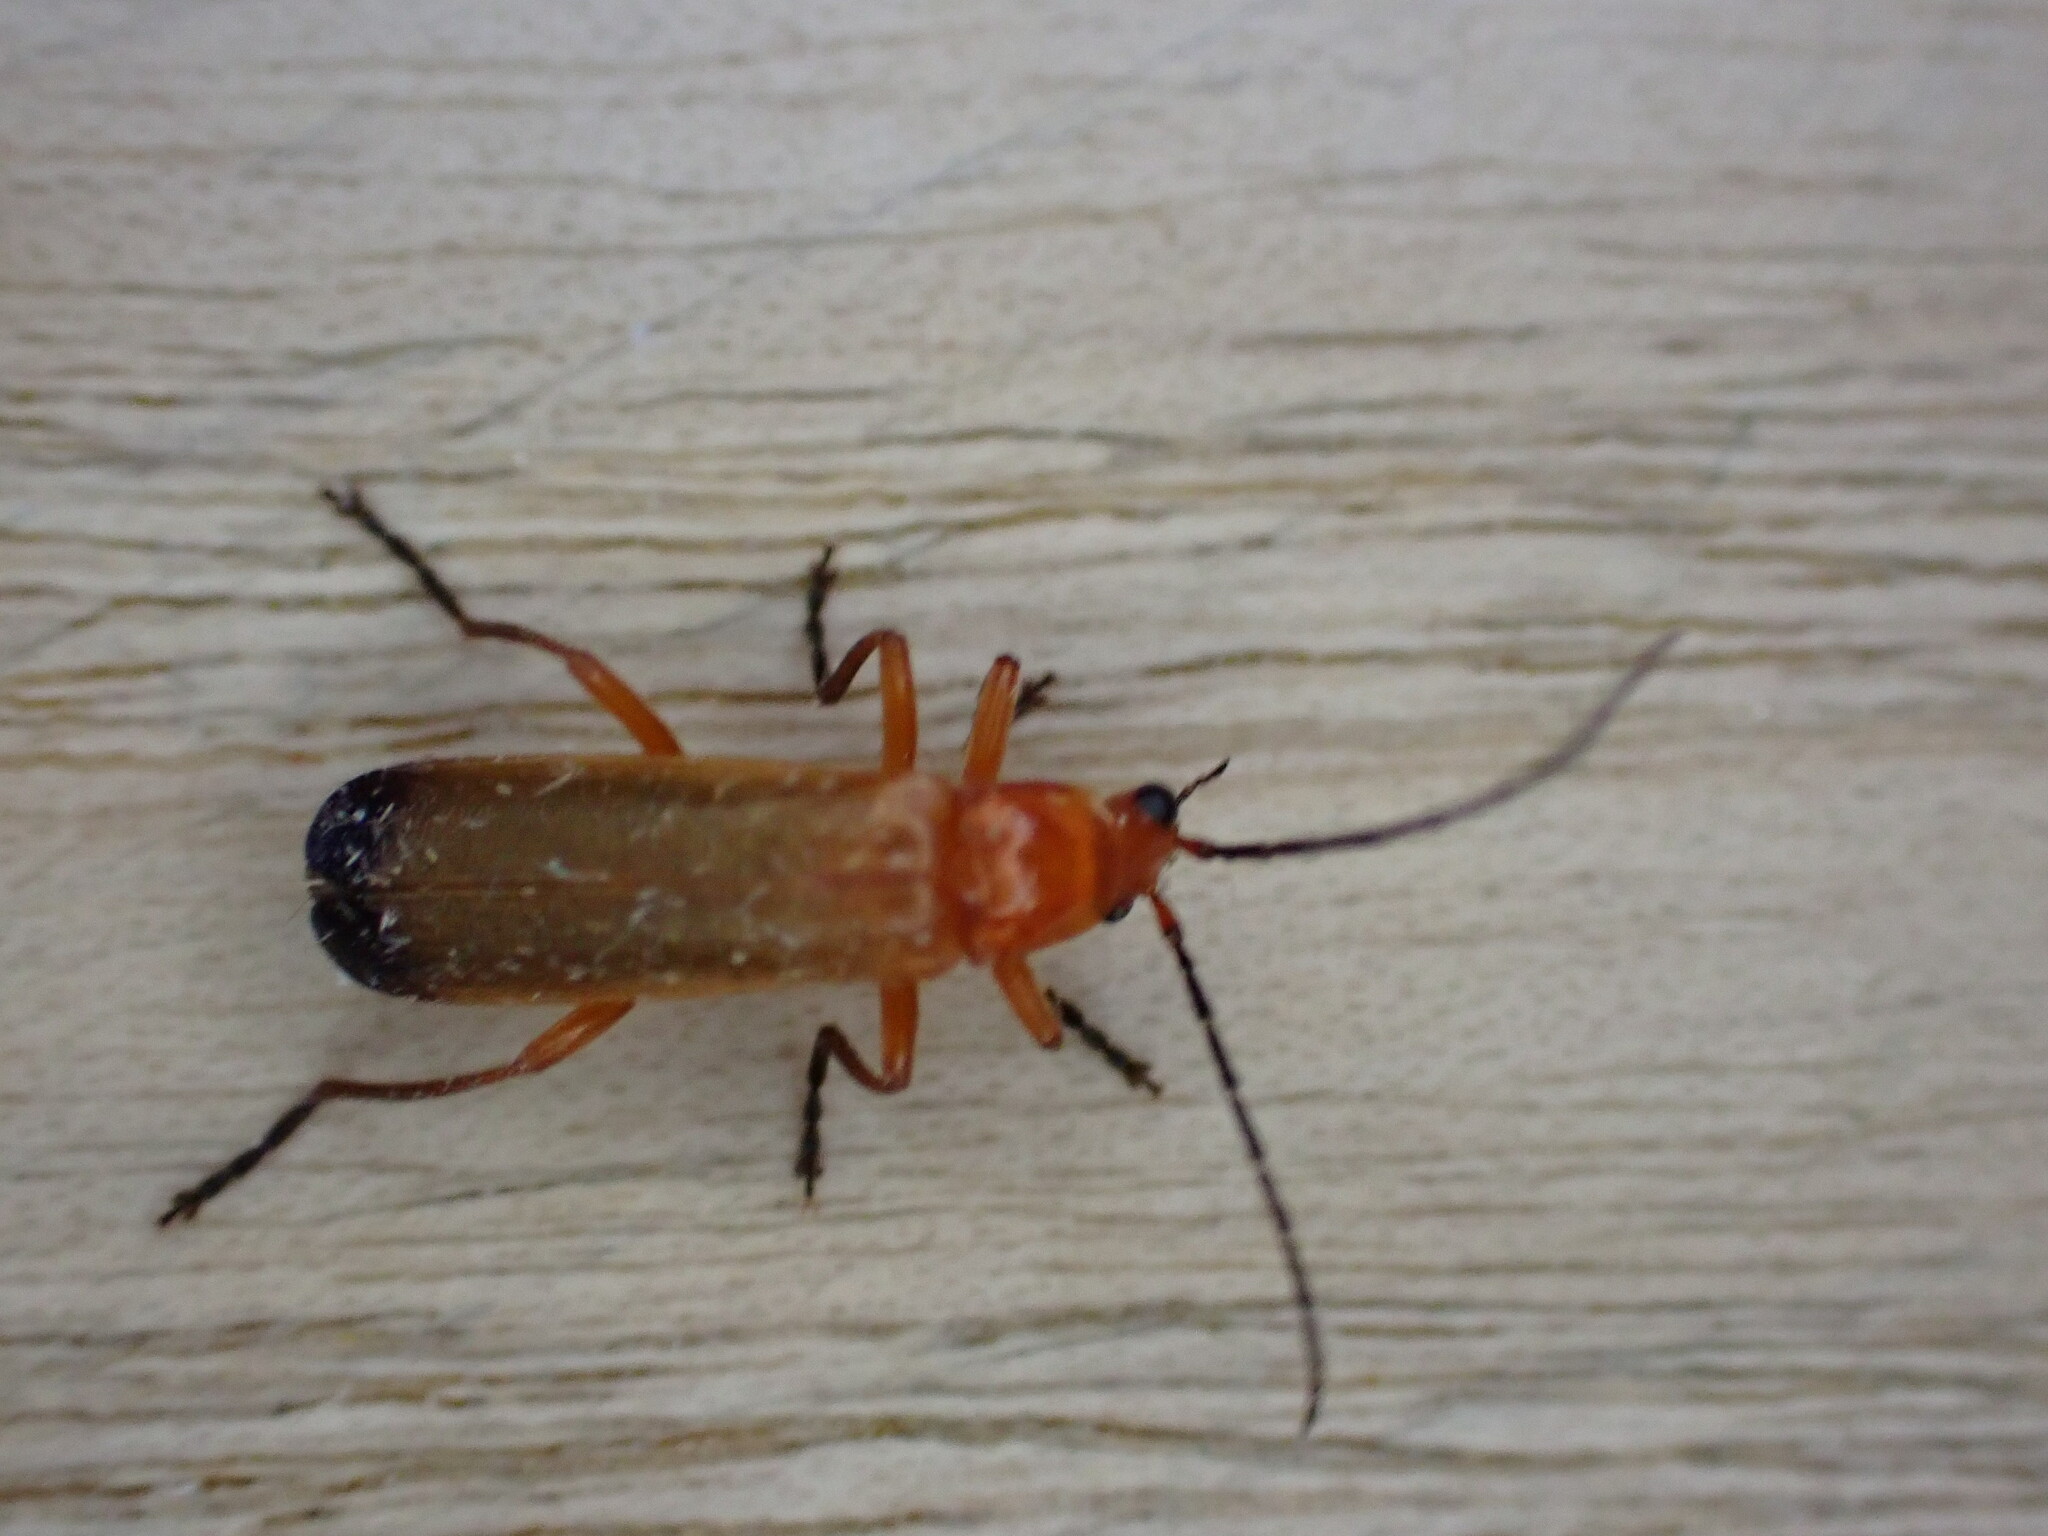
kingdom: Animalia
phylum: Arthropoda
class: Insecta
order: Coleoptera
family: Cantharidae
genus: Rhagonycha
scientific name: Rhagonycha fulva
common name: Common red soldier beetle
